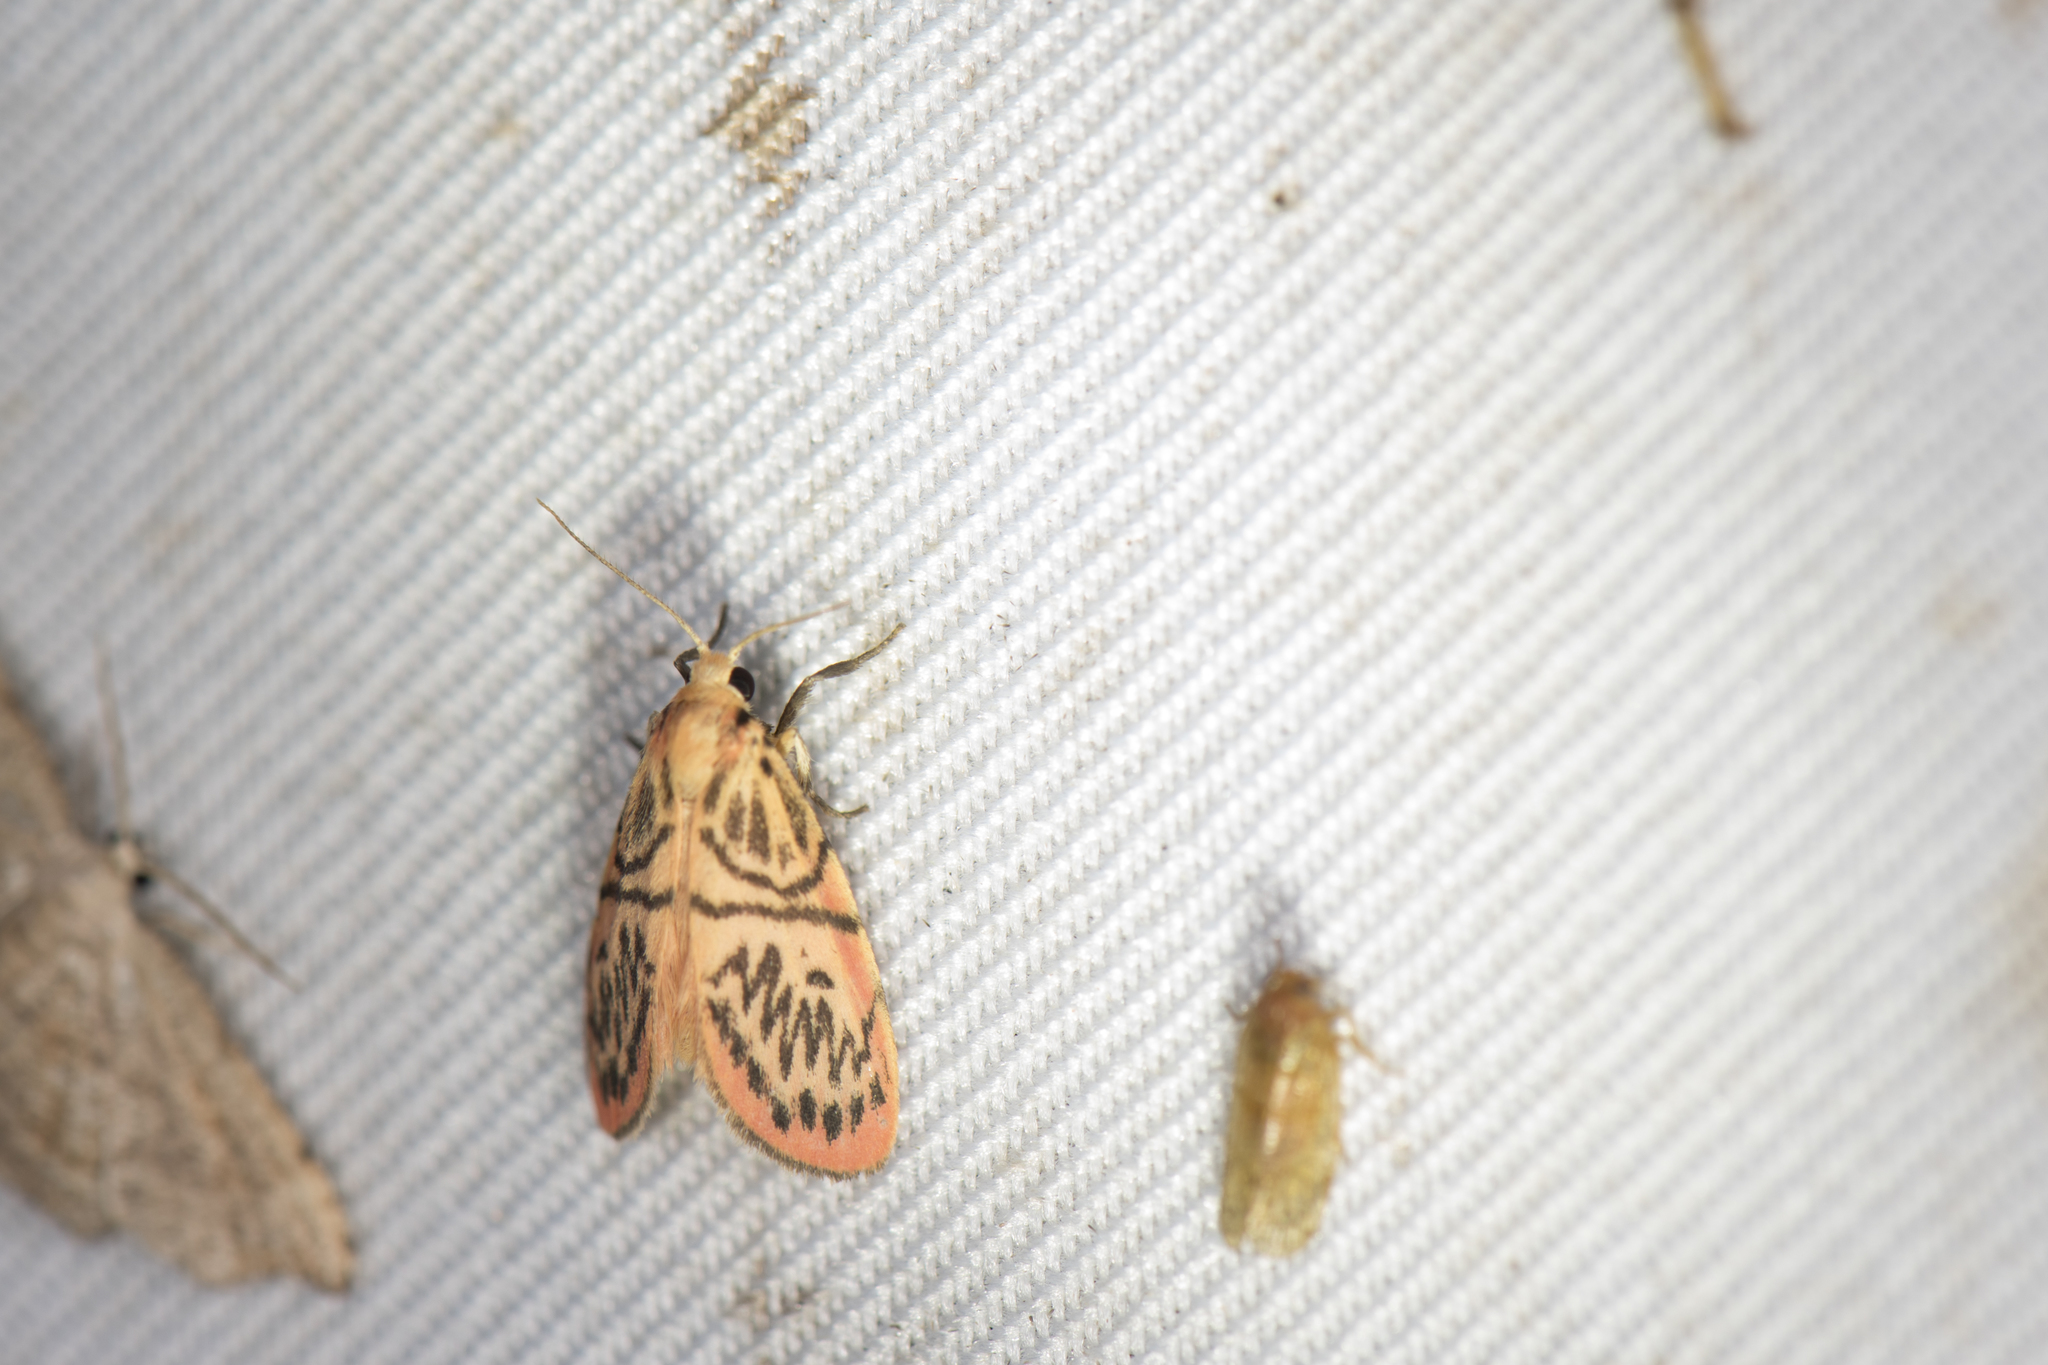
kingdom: Animalia
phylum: Arthropoda
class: Insecta
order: Lepidoptera
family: Erebidae
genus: Sesapa
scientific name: Sesapa koshunica
